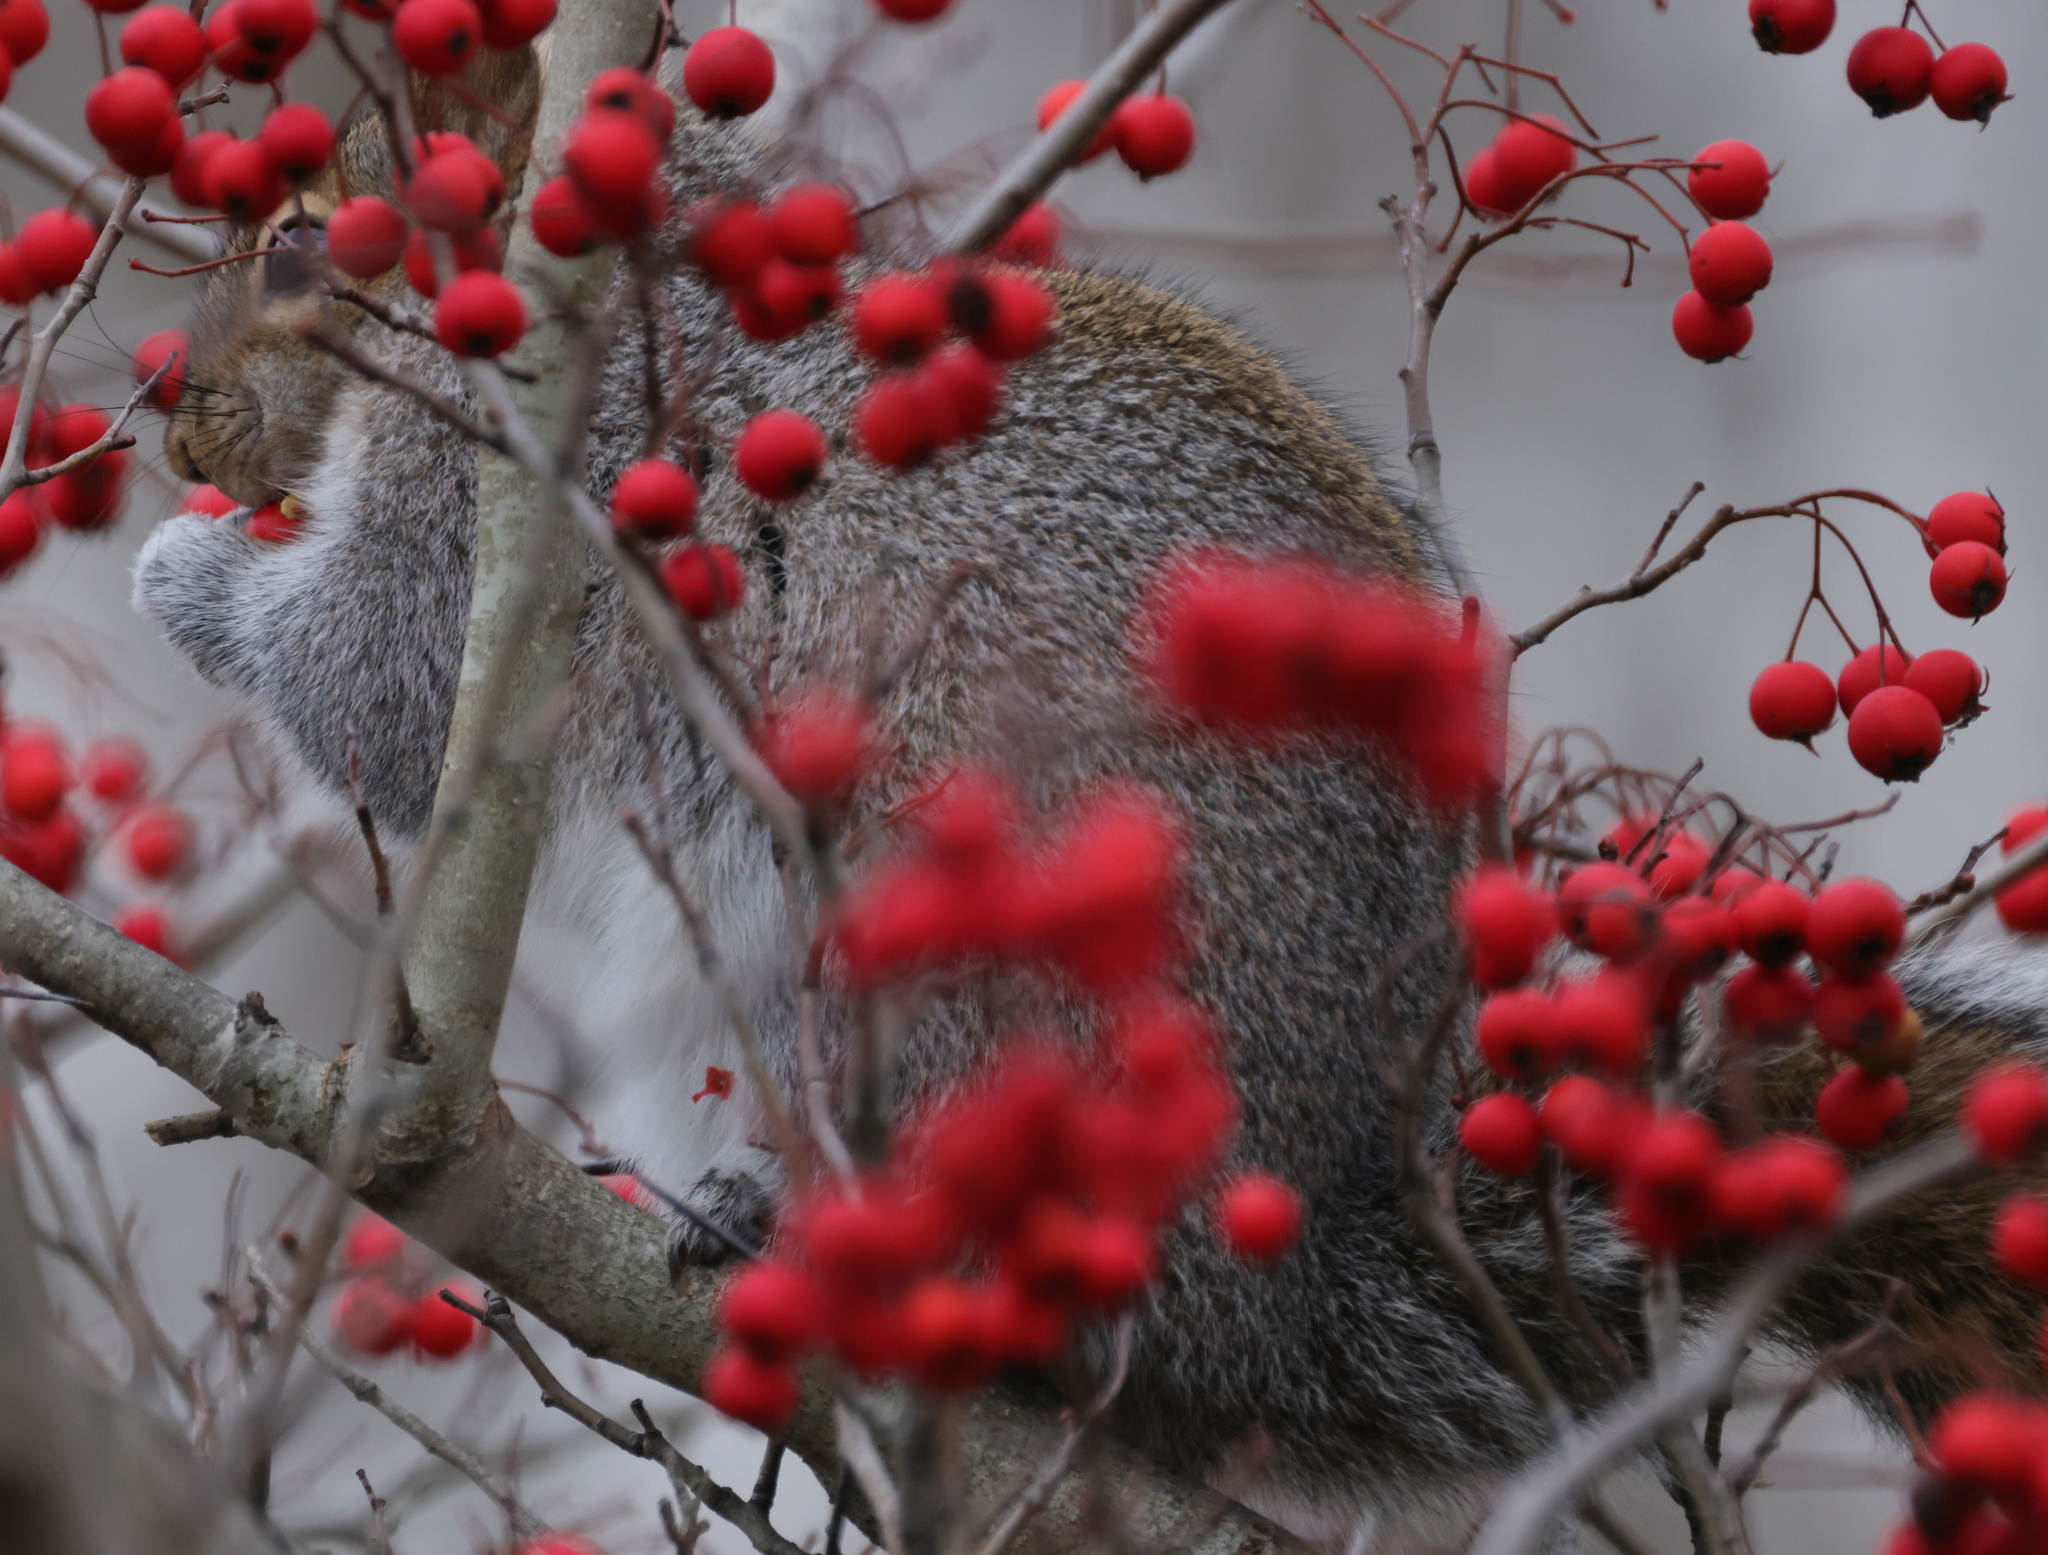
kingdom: Animalia
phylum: Chordata
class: Mammalia
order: Rodentia
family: Sciuridae
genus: Sciurus
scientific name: Sciurus carolinensis
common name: Eastern gray squirrel
